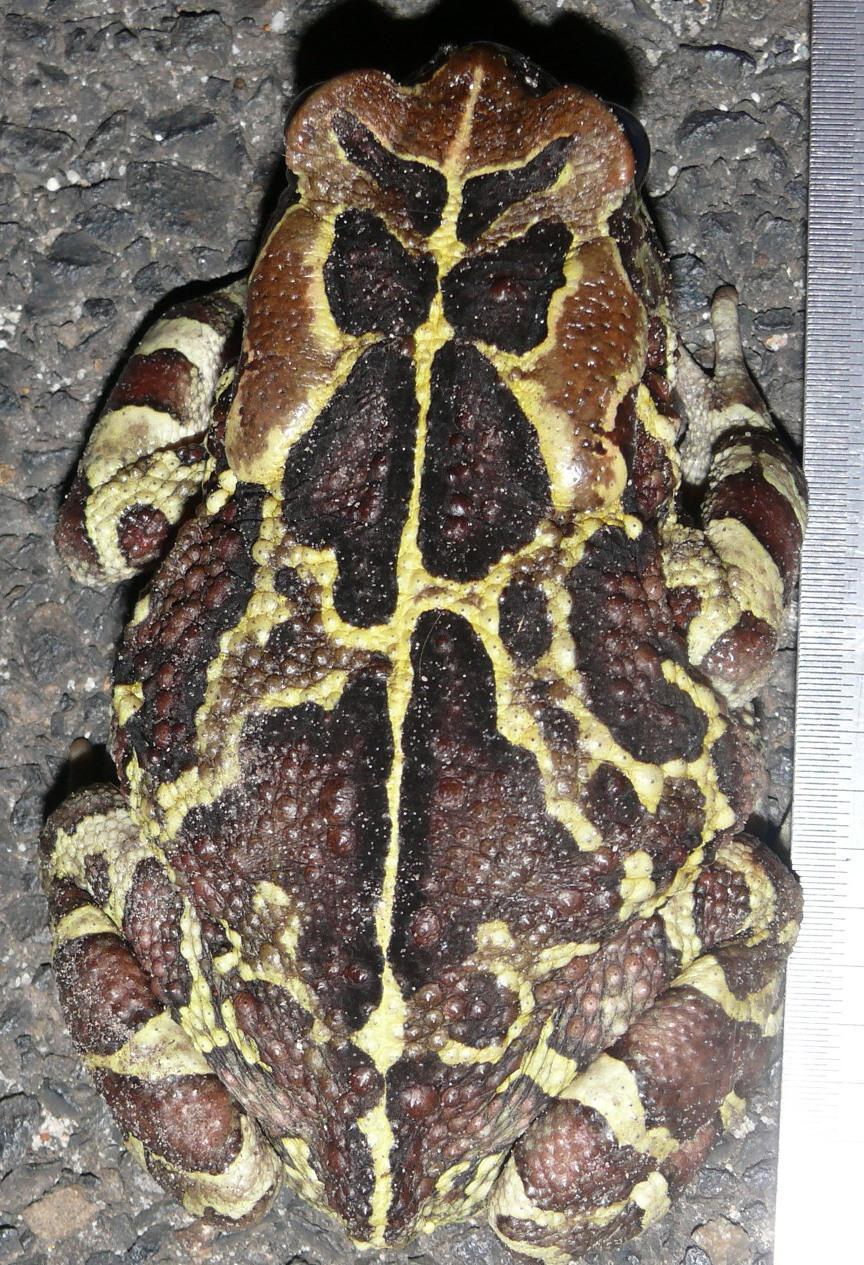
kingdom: Animalia
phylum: Chordata
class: Amphibia
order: Anura
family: Bufonidae
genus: Sclerophrys
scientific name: Sclerophrys pantherina
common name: Panther toad
